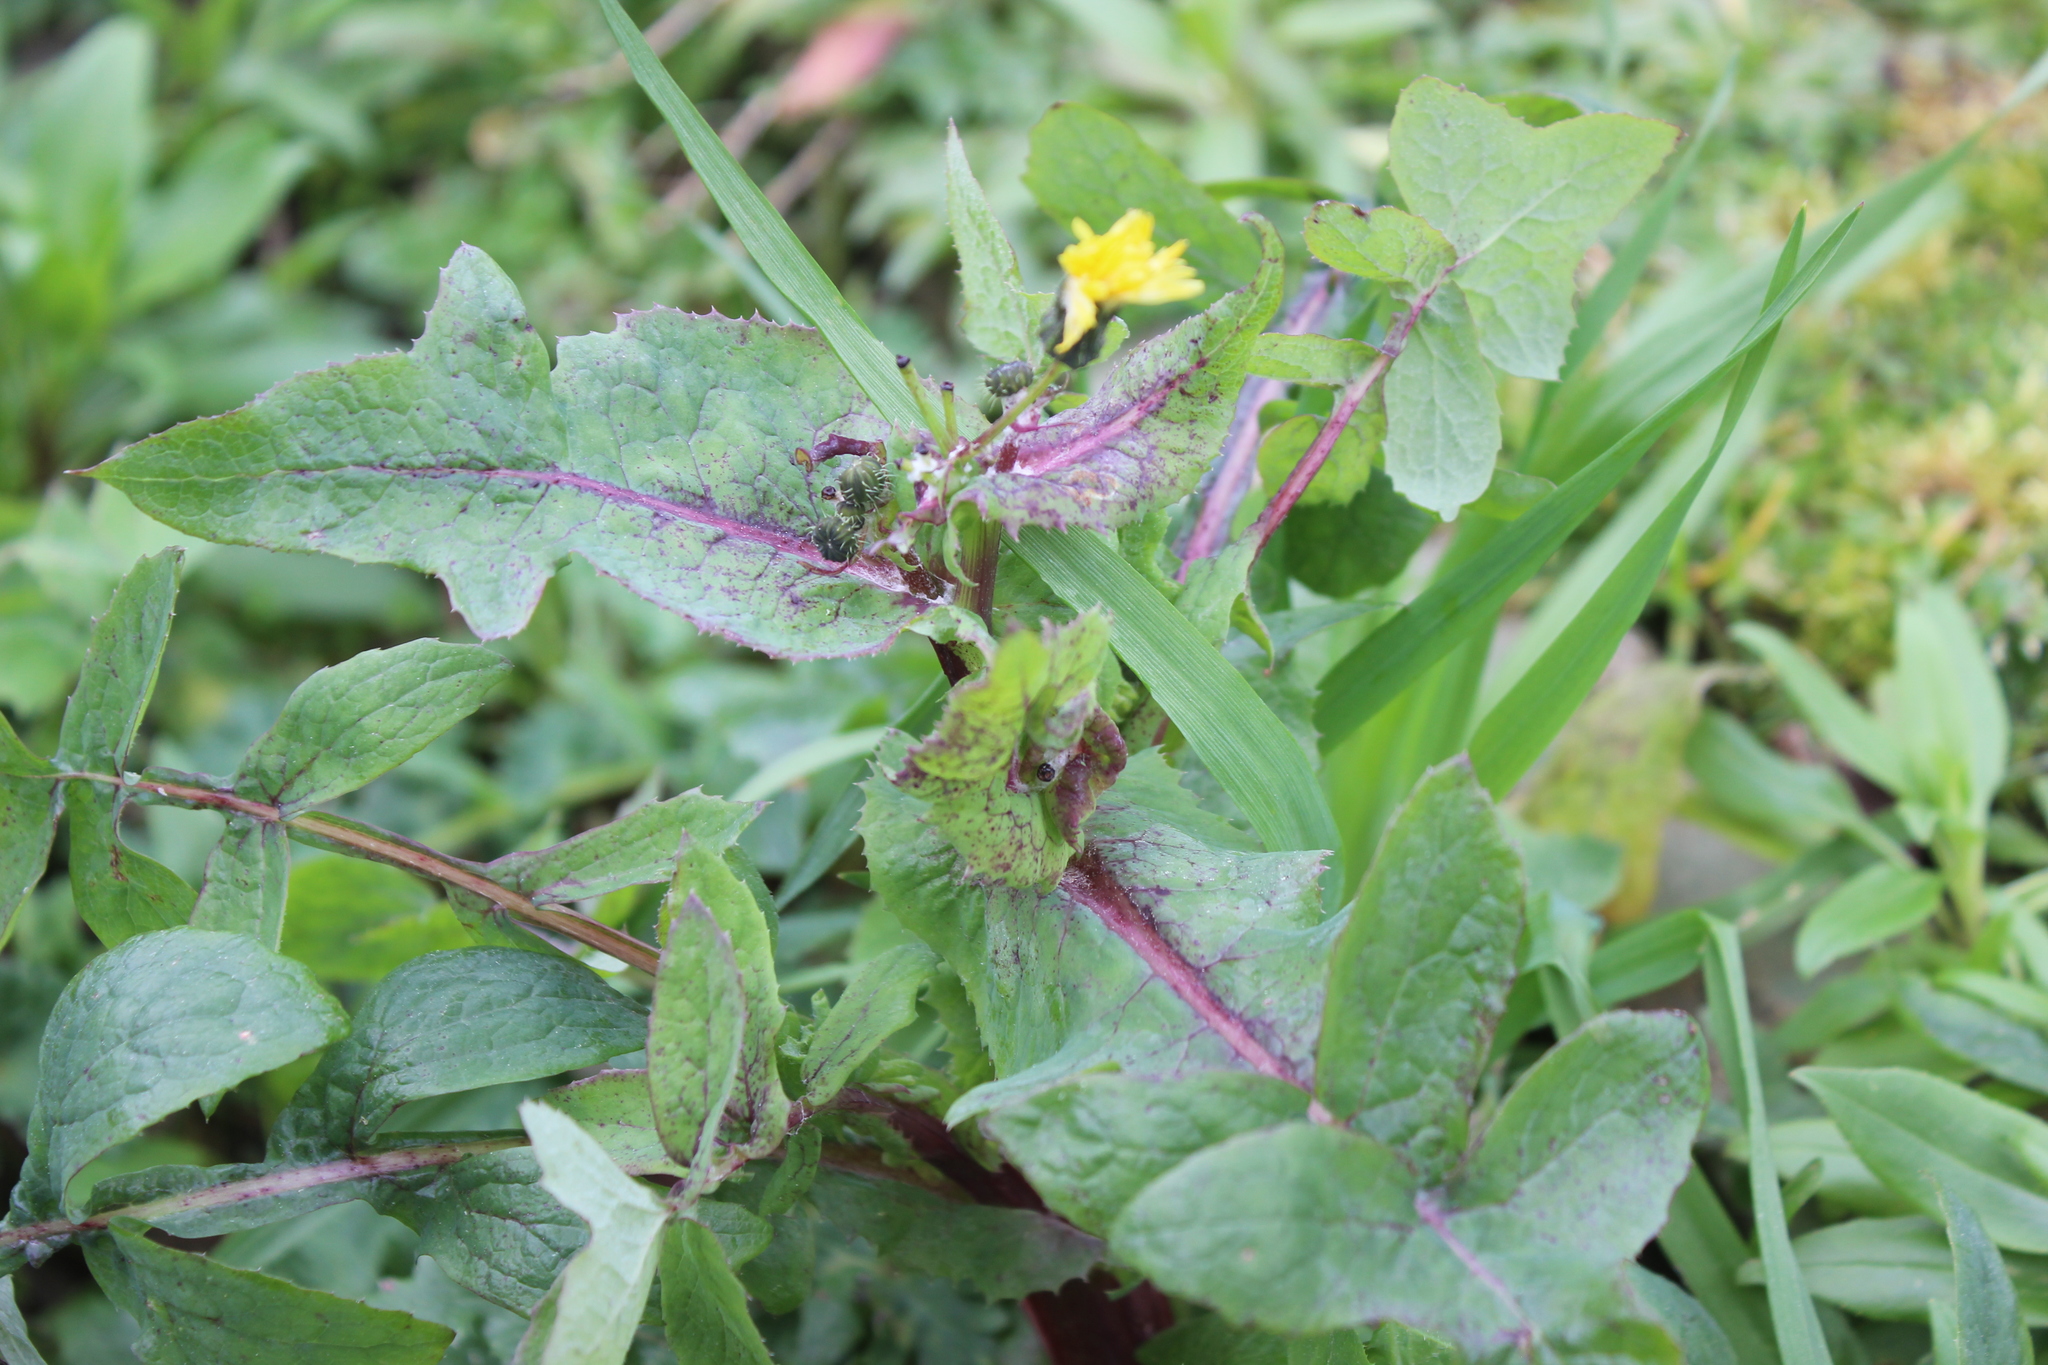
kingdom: Plantae
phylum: Tracheophyta
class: Magnoliopsida
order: Asterales
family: Asteraceae
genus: Sonchus
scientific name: Sonchus oleraceus
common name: Common sowthistle
